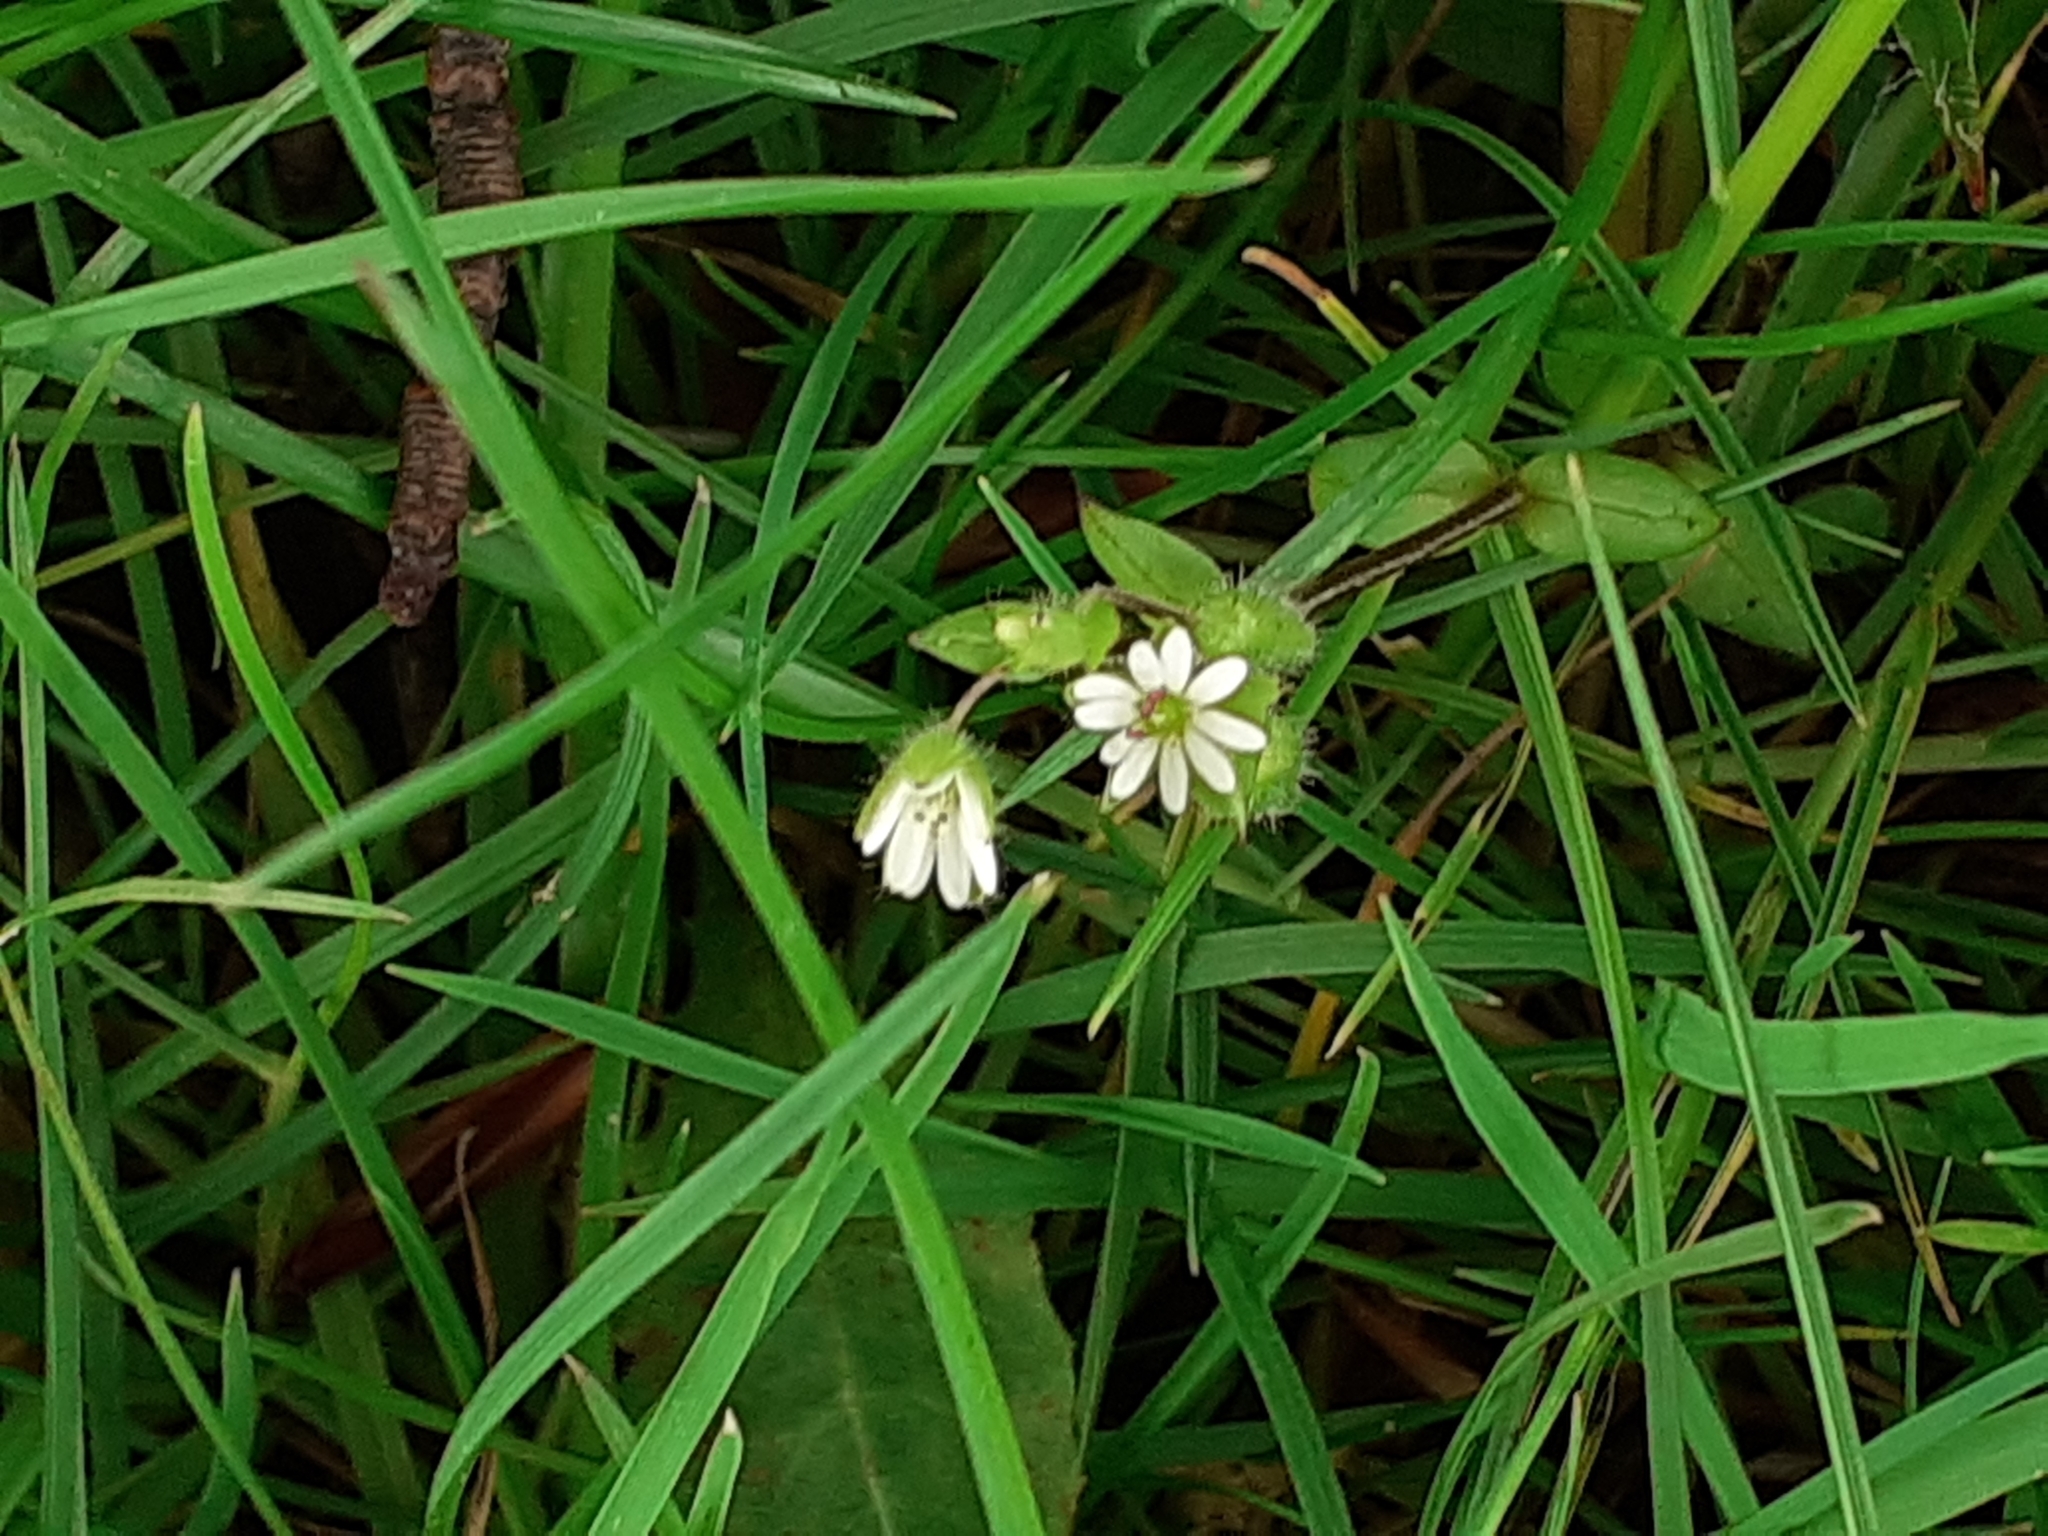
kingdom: Plantae
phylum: Tracheophyta
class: Magnoliopsida
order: Caryophyllales
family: Caryophyllaceae
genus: Stellaria
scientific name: Stellaria media
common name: Common chickweed
